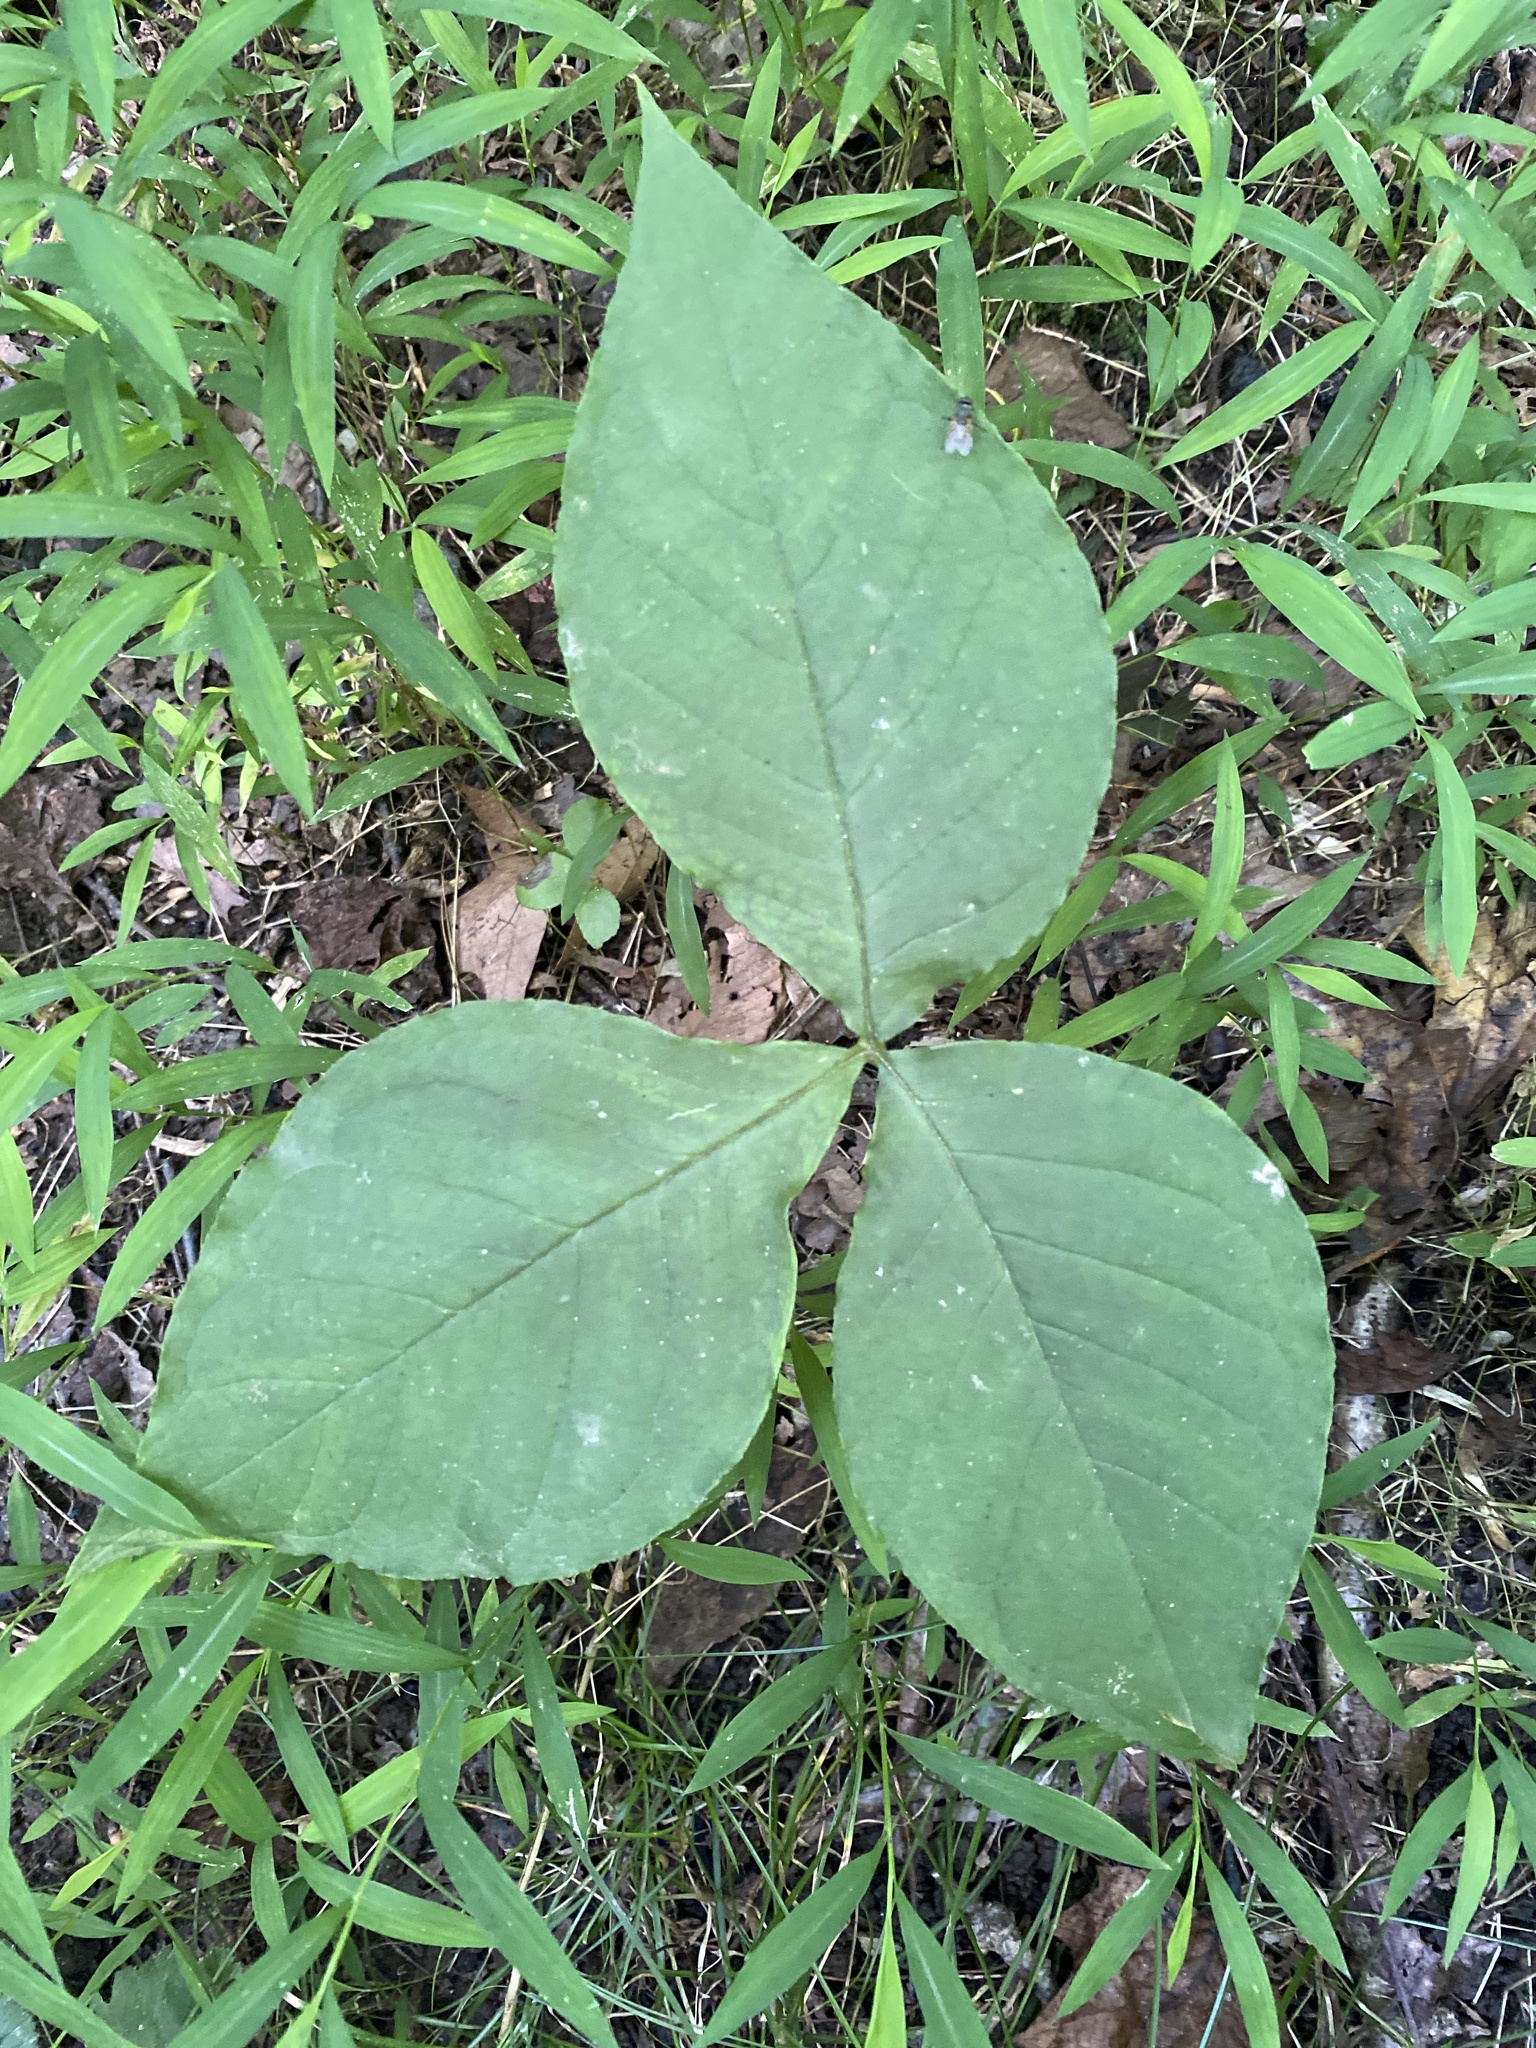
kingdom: Plantae
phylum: Tracheophyta
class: Liliopsida
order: Alismatales
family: Araceae
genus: Arisaema
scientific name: Arisaema triphyllum
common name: Jack-in-the-pulpit
